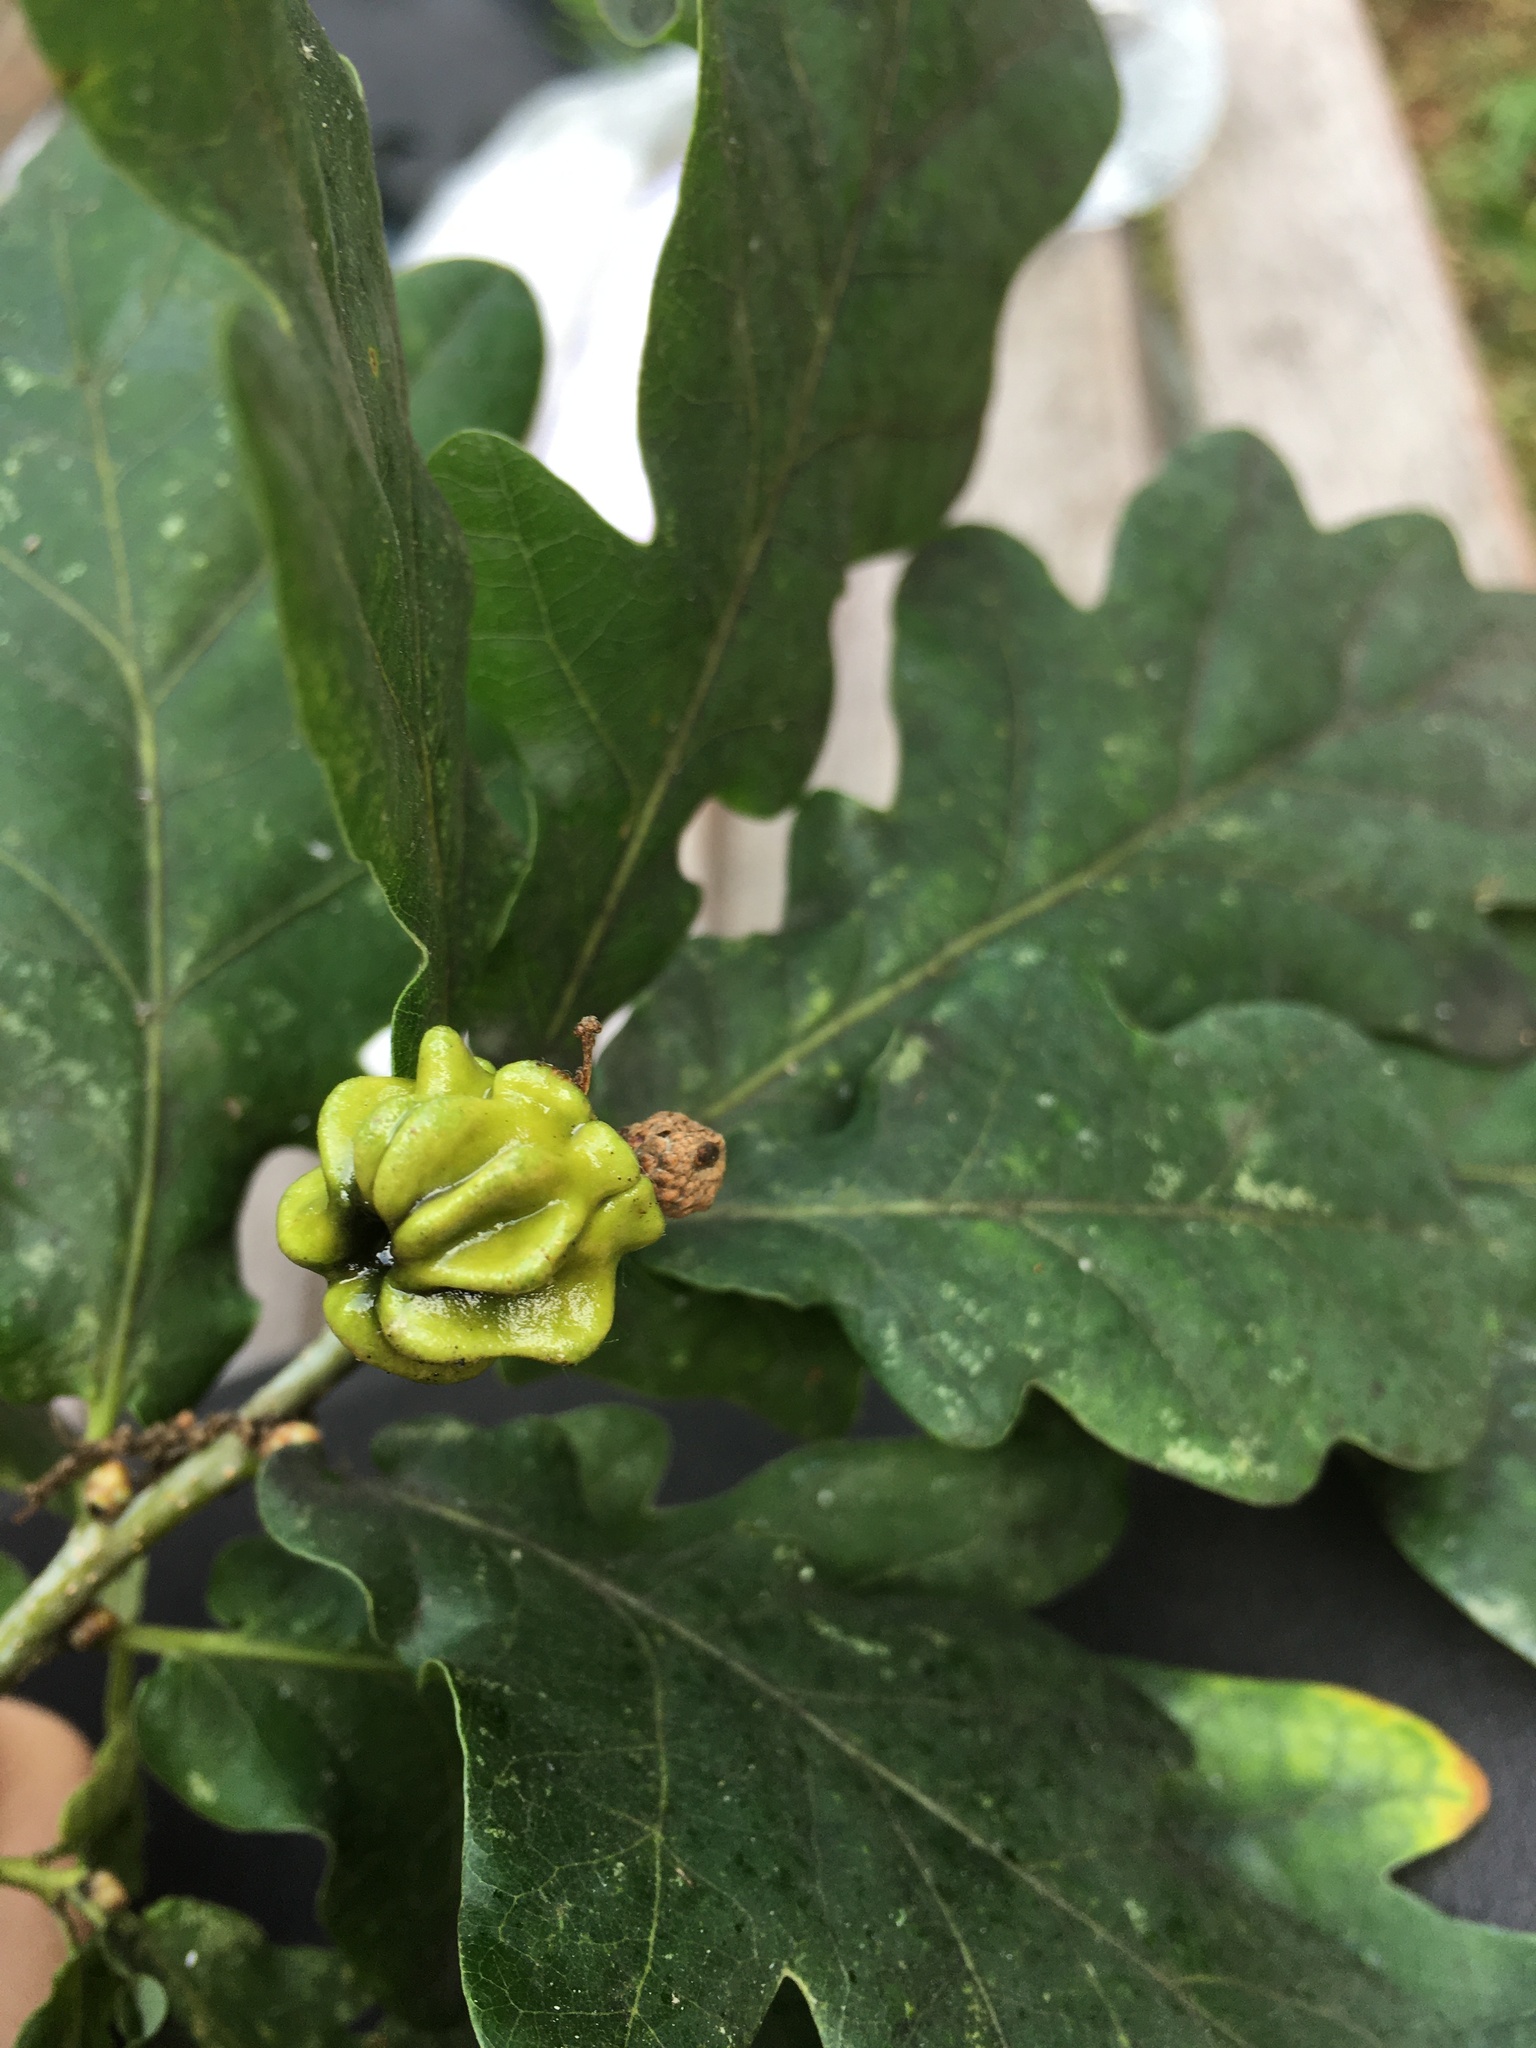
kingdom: Animalia
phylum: Arthropoda
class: Insecta
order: Hymenoptera
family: Cynipidae
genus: Andricus
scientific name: Andricus quercuscalicis
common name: Knopper gall
